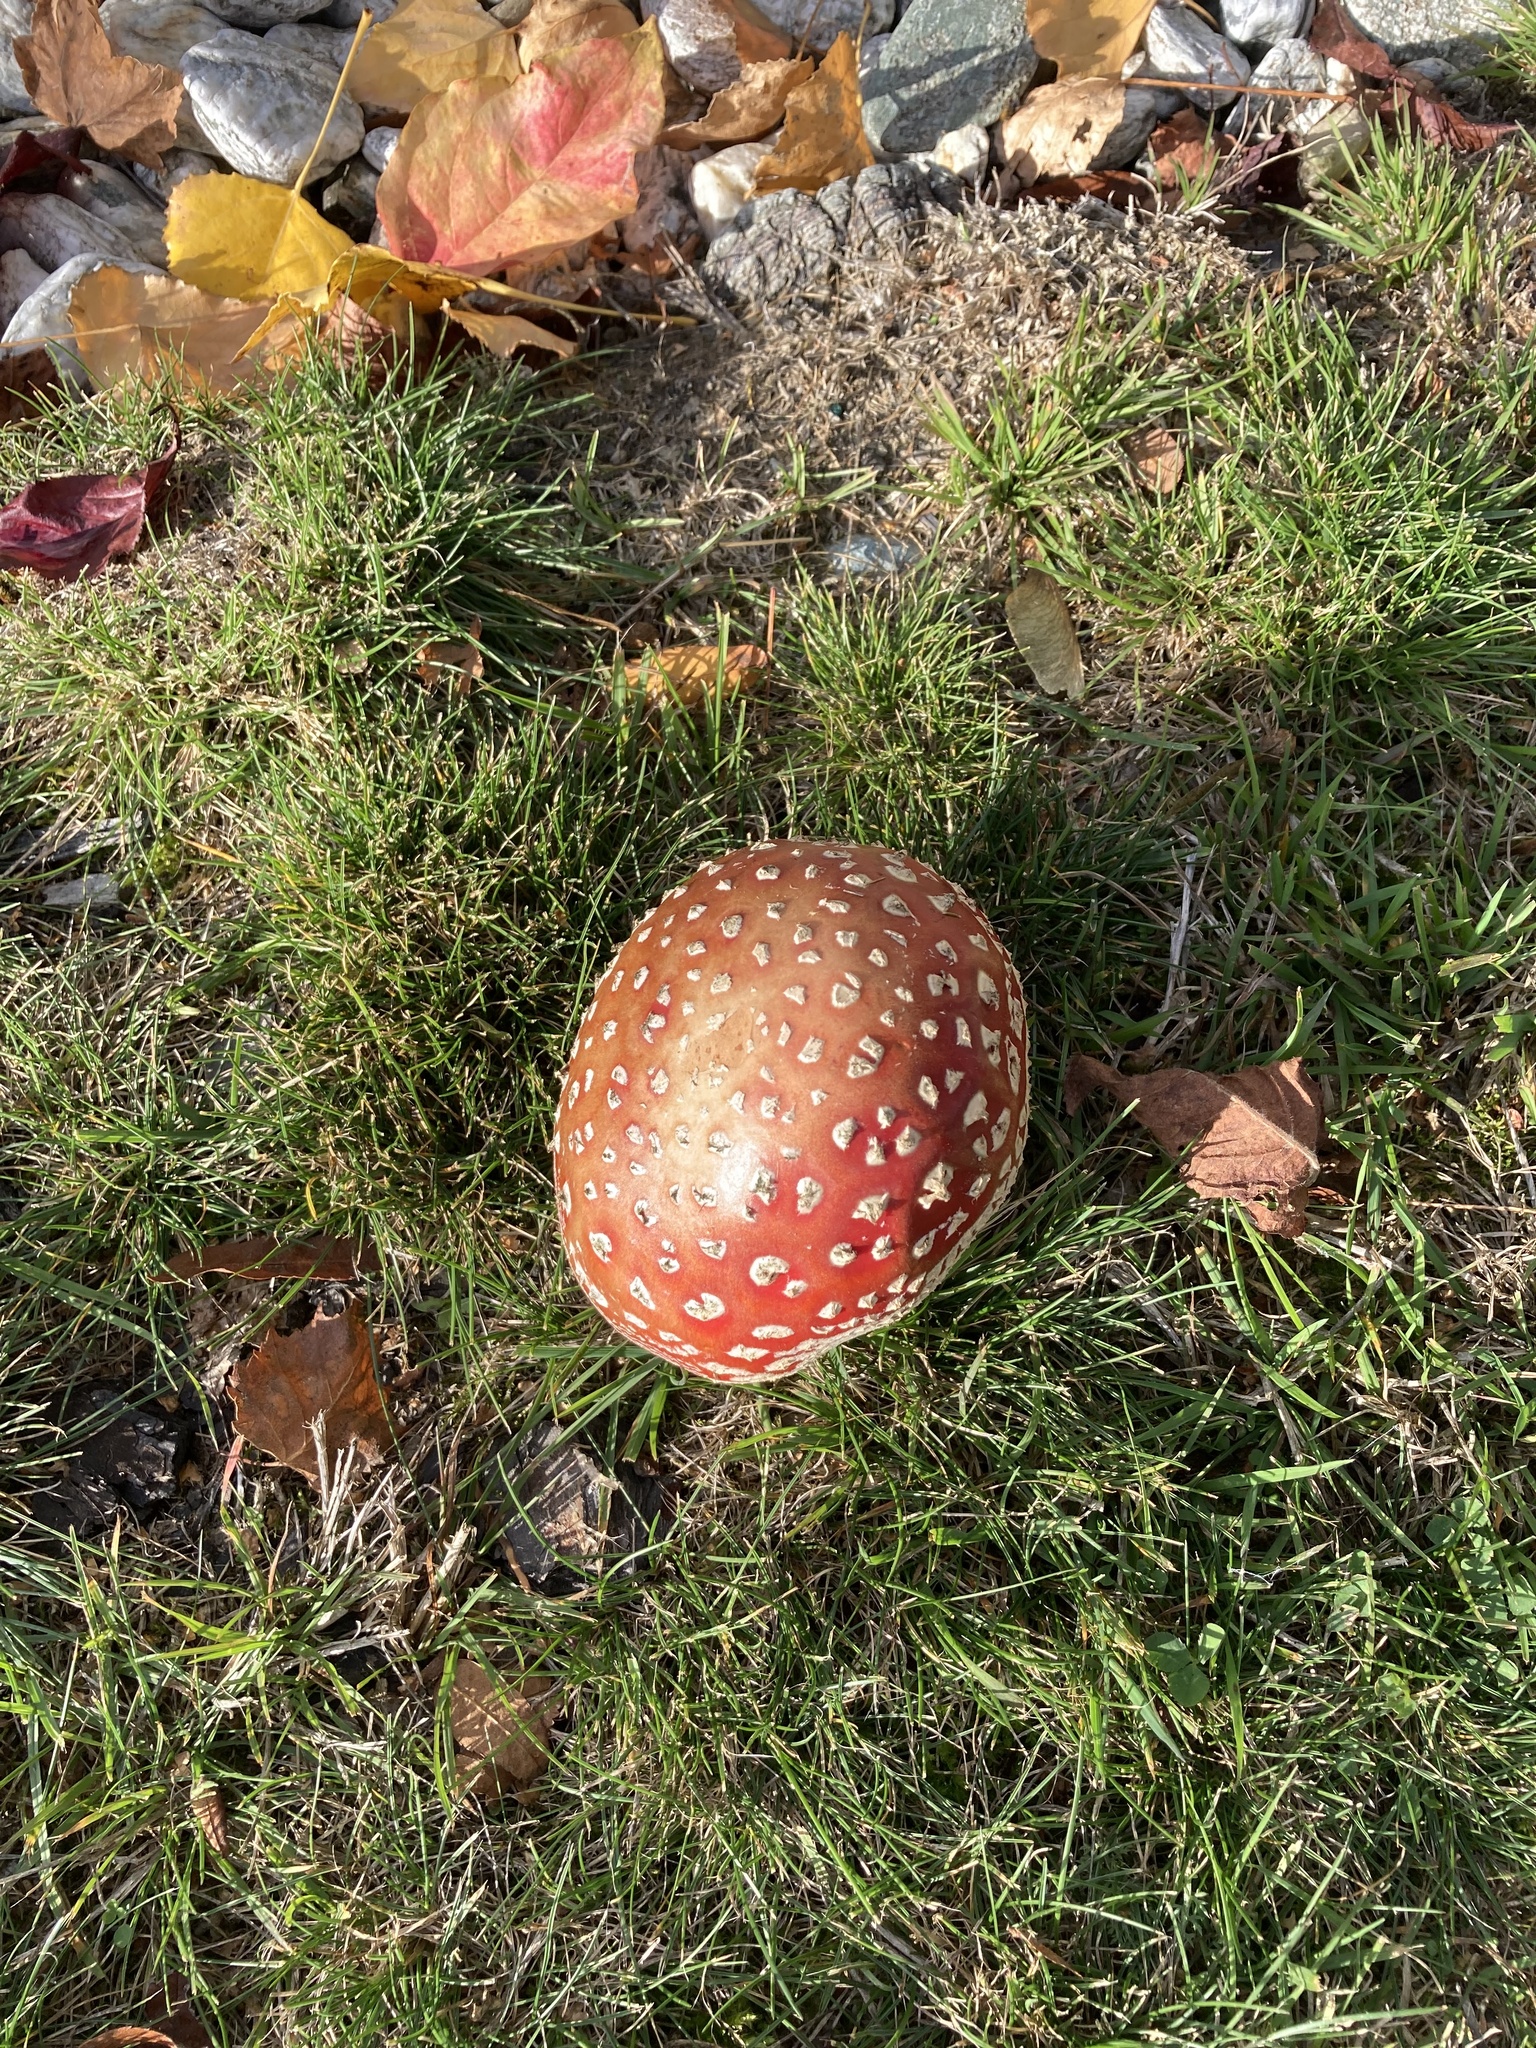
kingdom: Fungi
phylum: Basidiomycota
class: Agaricomycetes
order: Agaricales
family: Amanitaceae
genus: Amanita
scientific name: Amanita muscaria
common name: Fly agaric
